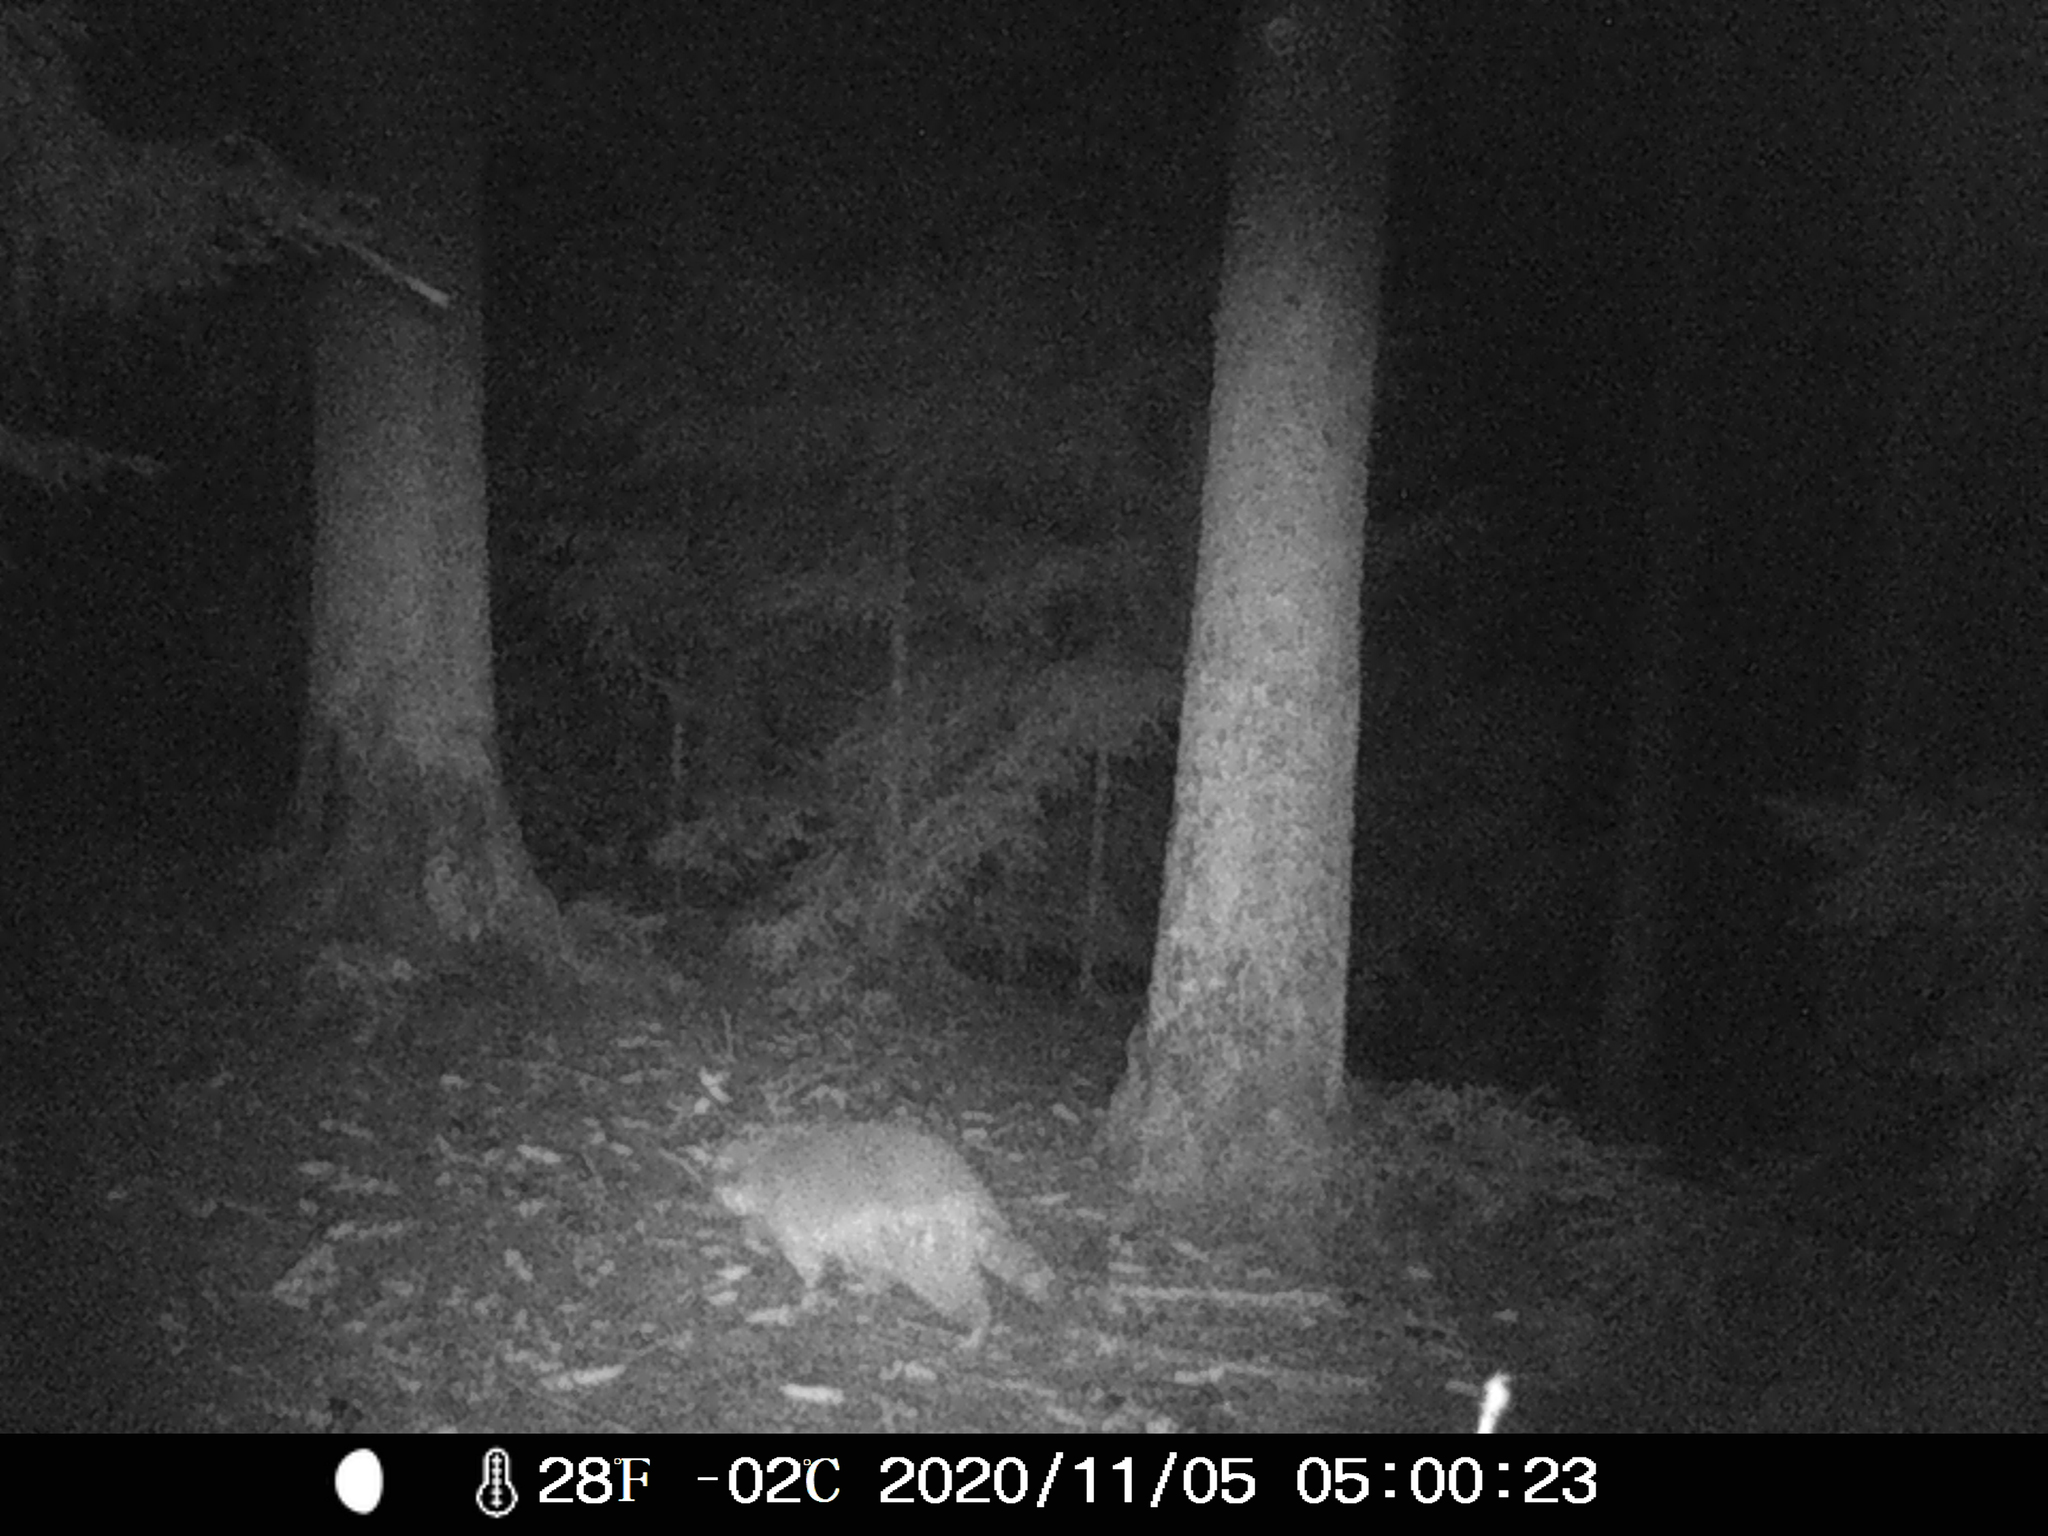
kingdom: Animalia
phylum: Chordata
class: Mammalia
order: Carnivora
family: Procyonidae
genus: Procyon
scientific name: Procyon lotor
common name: Raccoon
